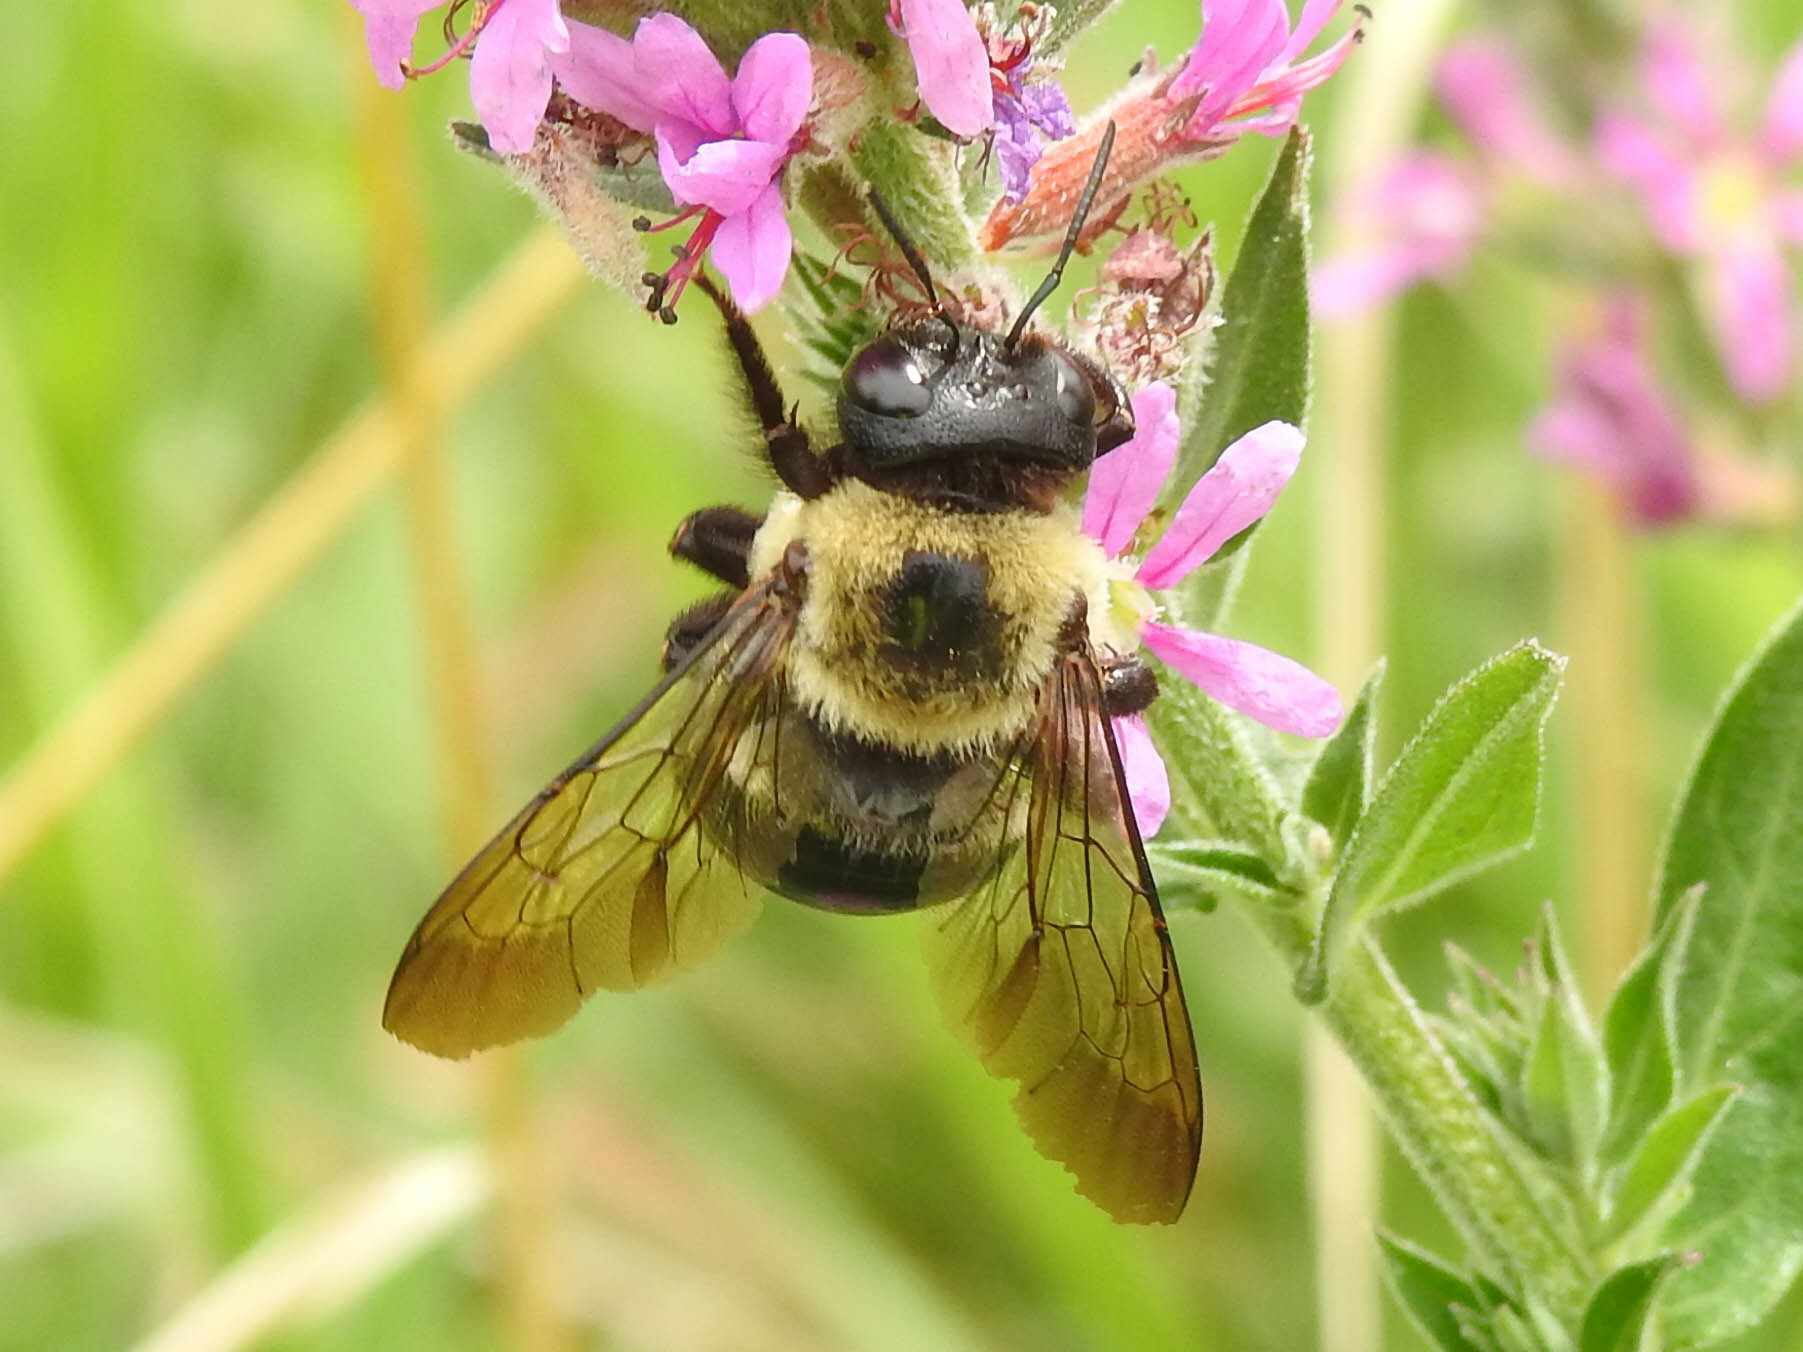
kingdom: Animalia
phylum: Arthropoda
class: Insecta
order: Hymenoptera
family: Apidae
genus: Xylocopa
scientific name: Xylocopa virginica
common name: Carpenter bee
